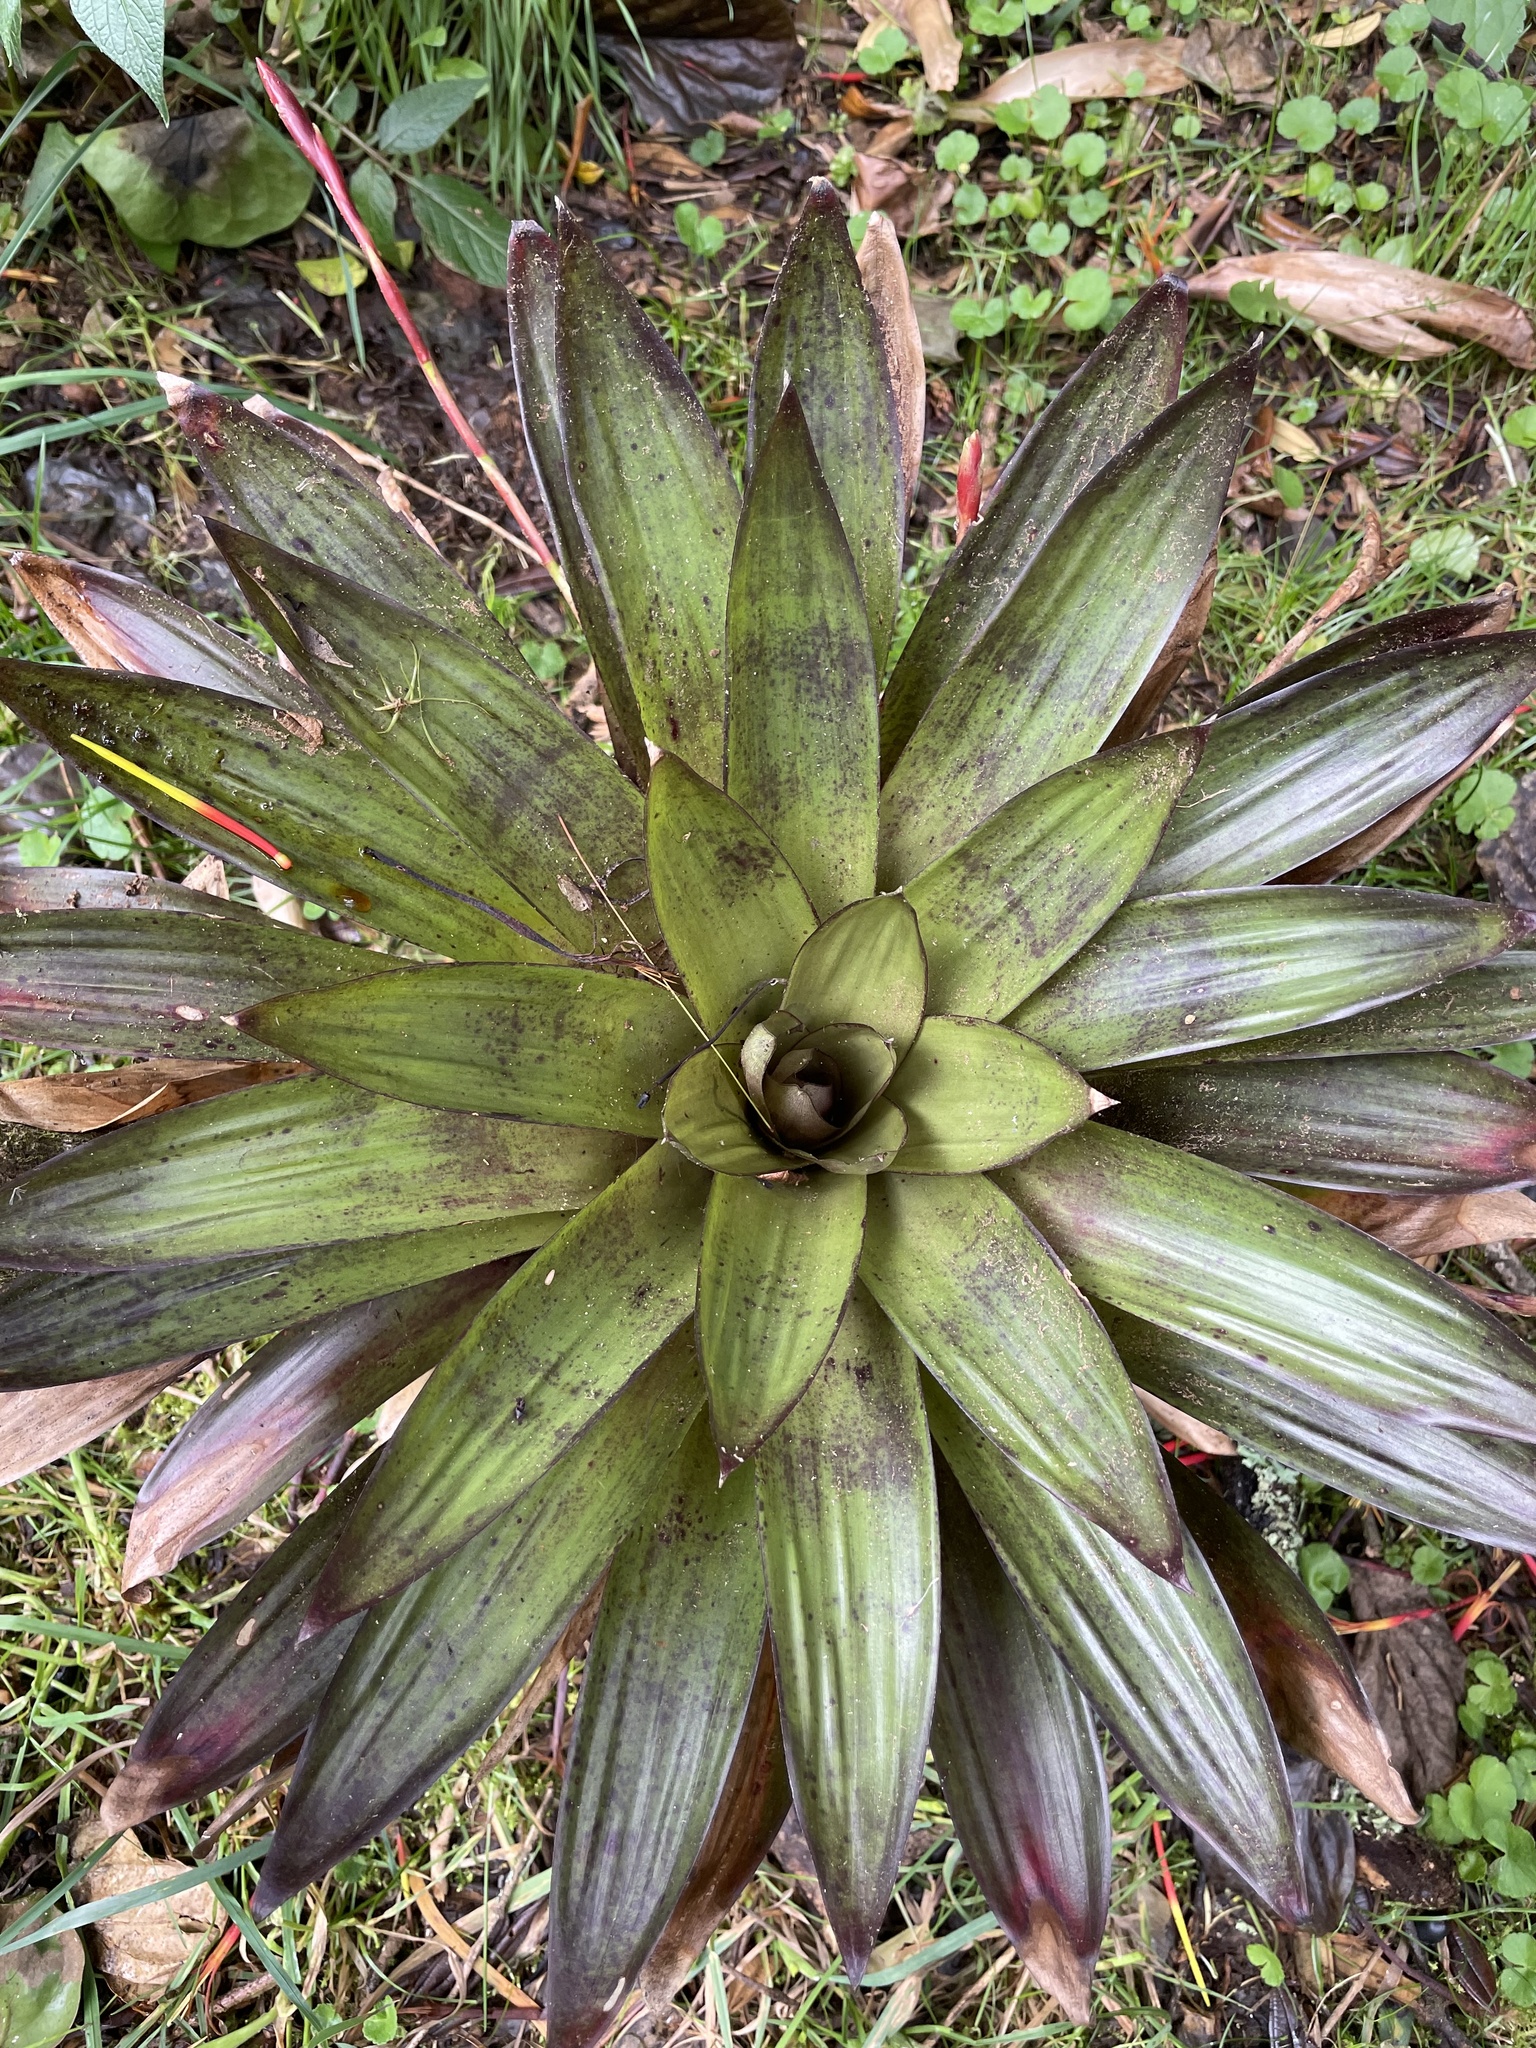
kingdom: Plantae
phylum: Tracheophyta
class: Liliopsida
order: Poales
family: Bromeliaceae
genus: Tillandsia
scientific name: Tillandsia complanata
